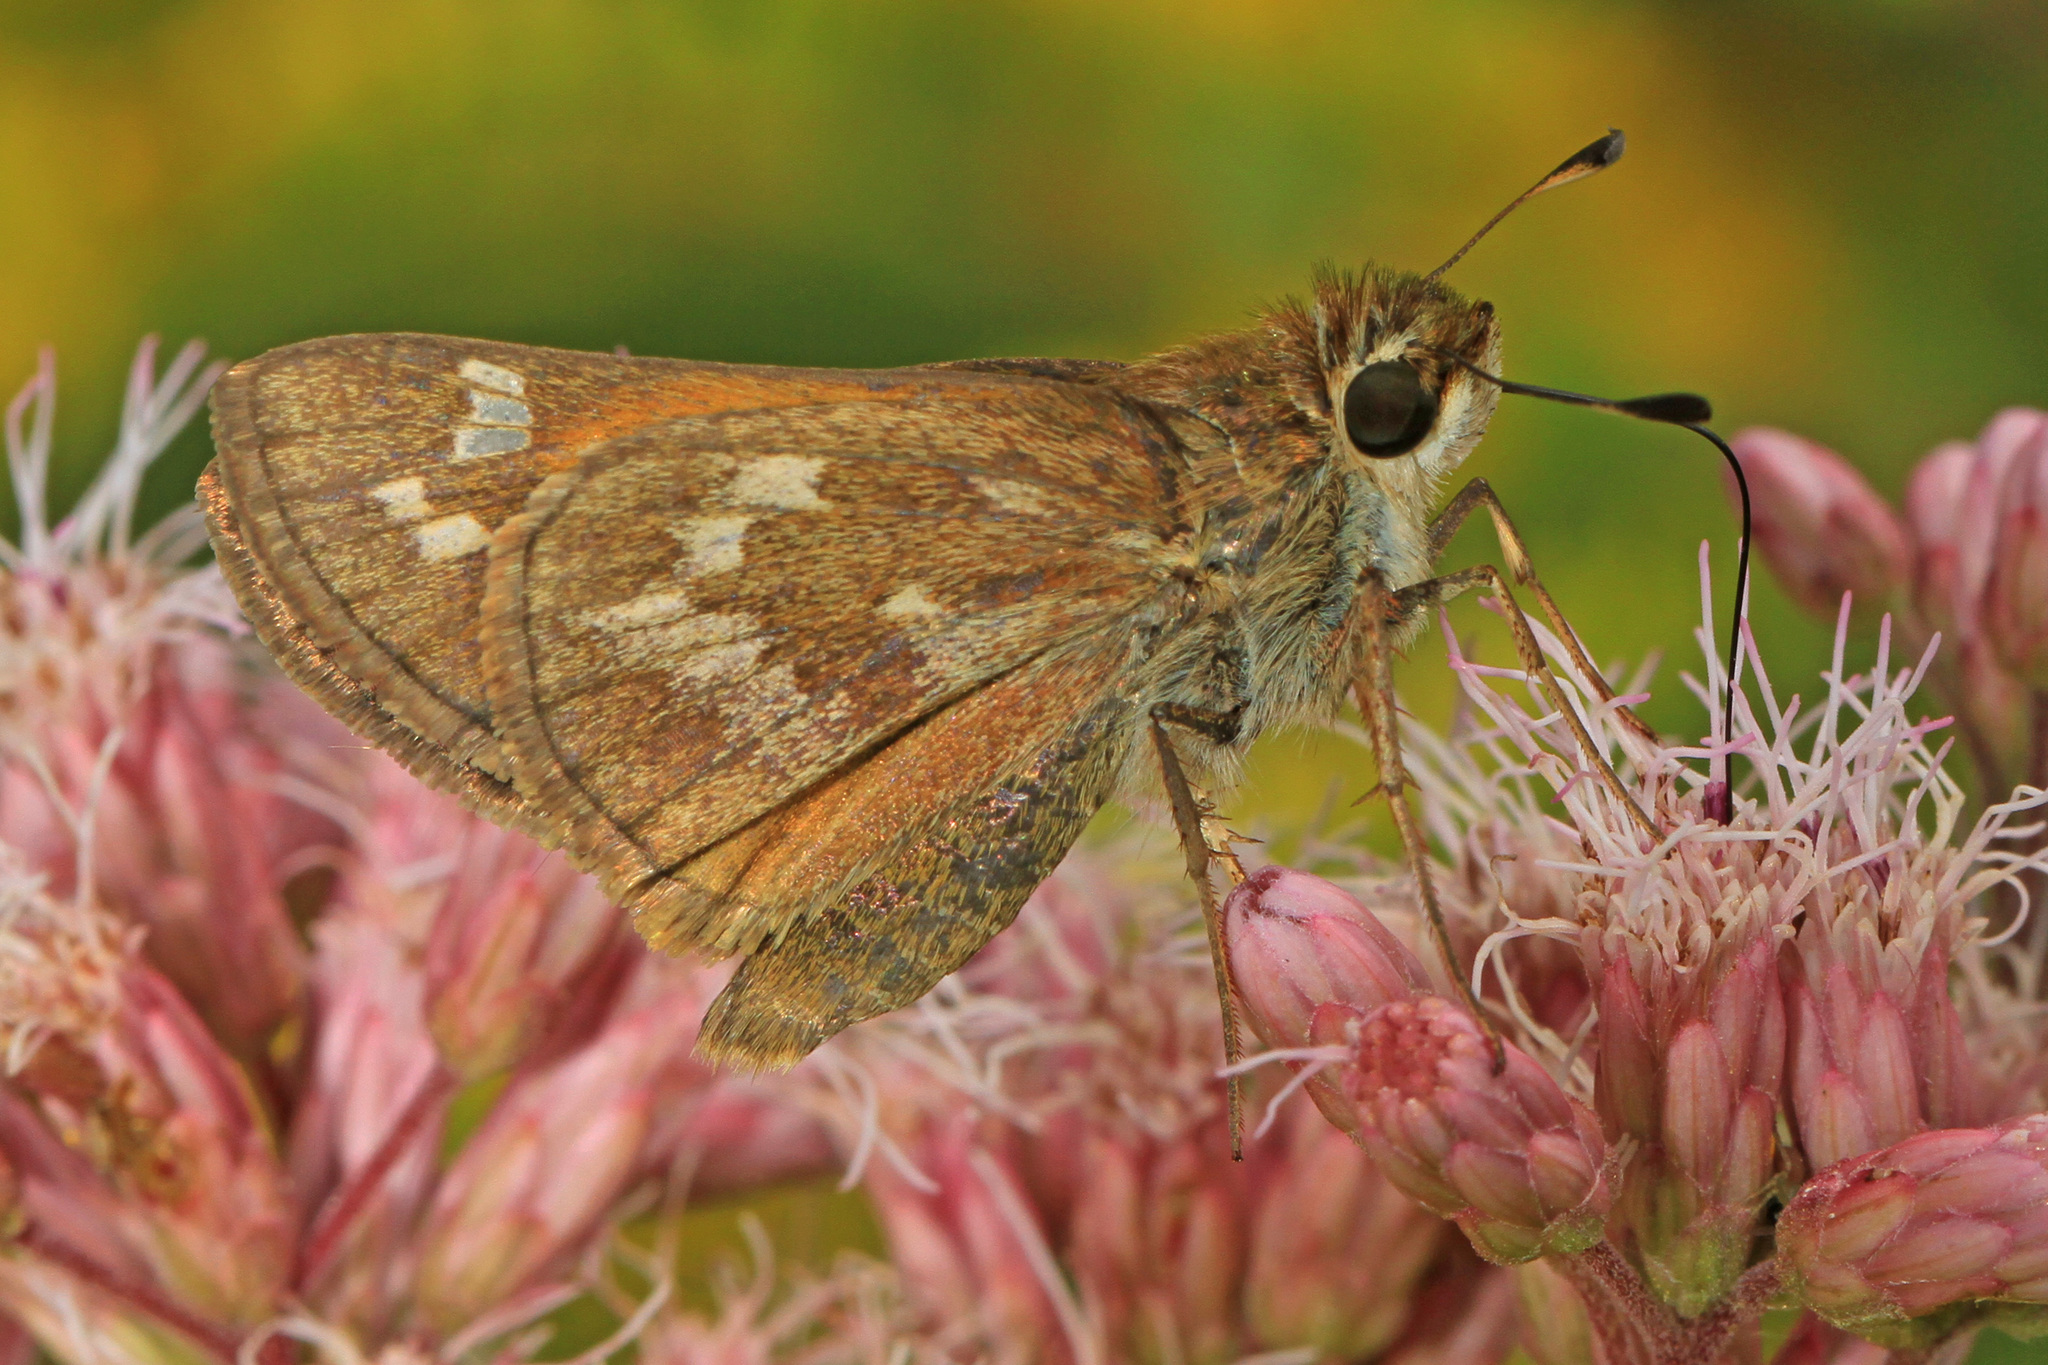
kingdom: Animalia
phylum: Arthropoda
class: Insecta
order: Lepidoptera
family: Hesperiidae
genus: Atalopedes
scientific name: Atalopedes
